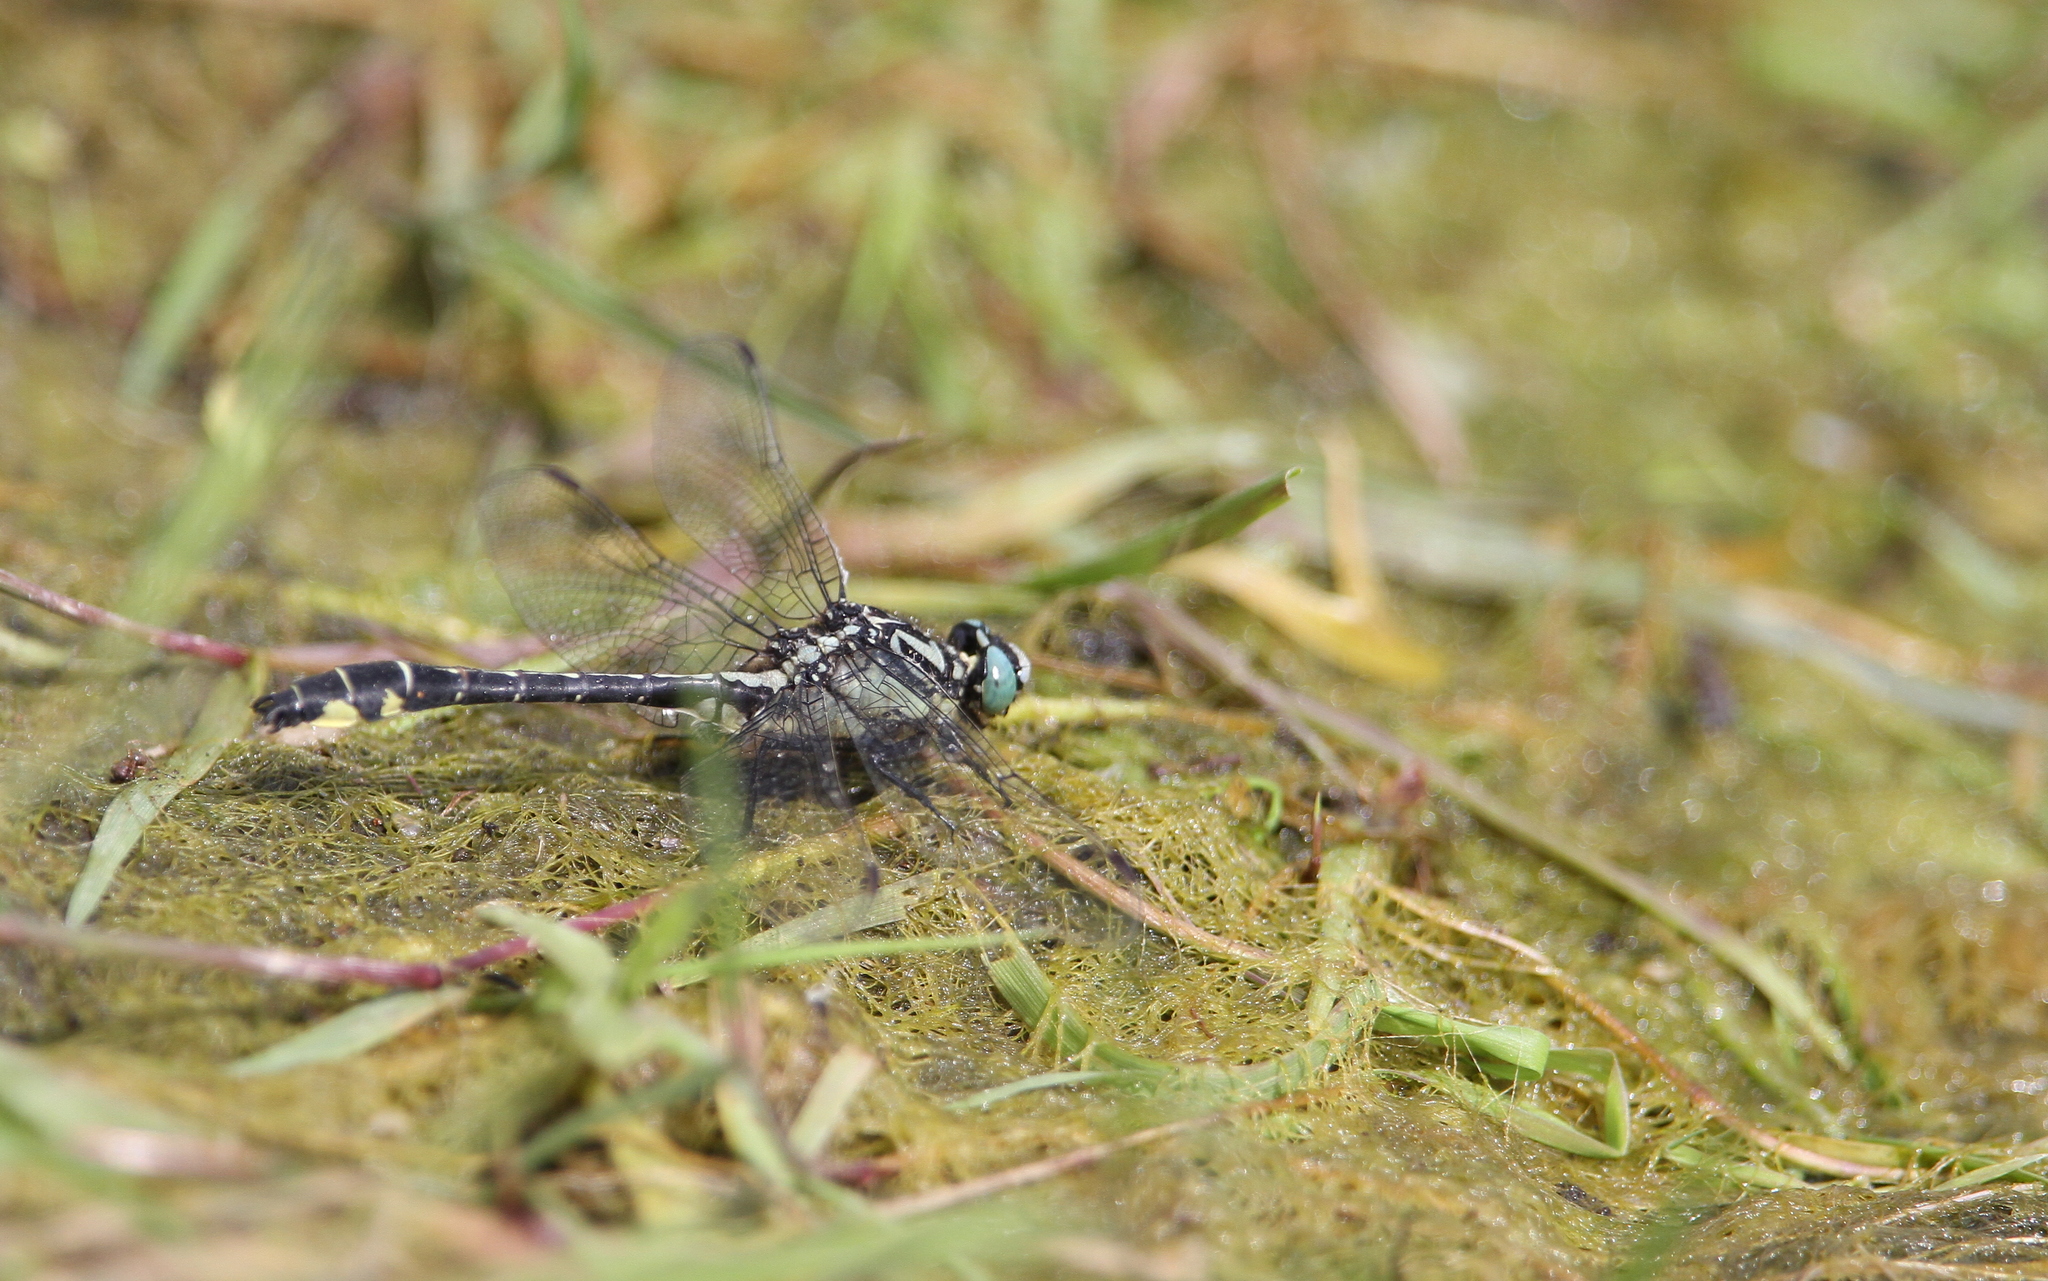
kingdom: Animalia
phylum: Arthropoda
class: Insecta
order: Odonata
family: Gomphidae
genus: Gomphus
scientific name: Gomphus vulgatissimus
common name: Club-tailed dragonfly
